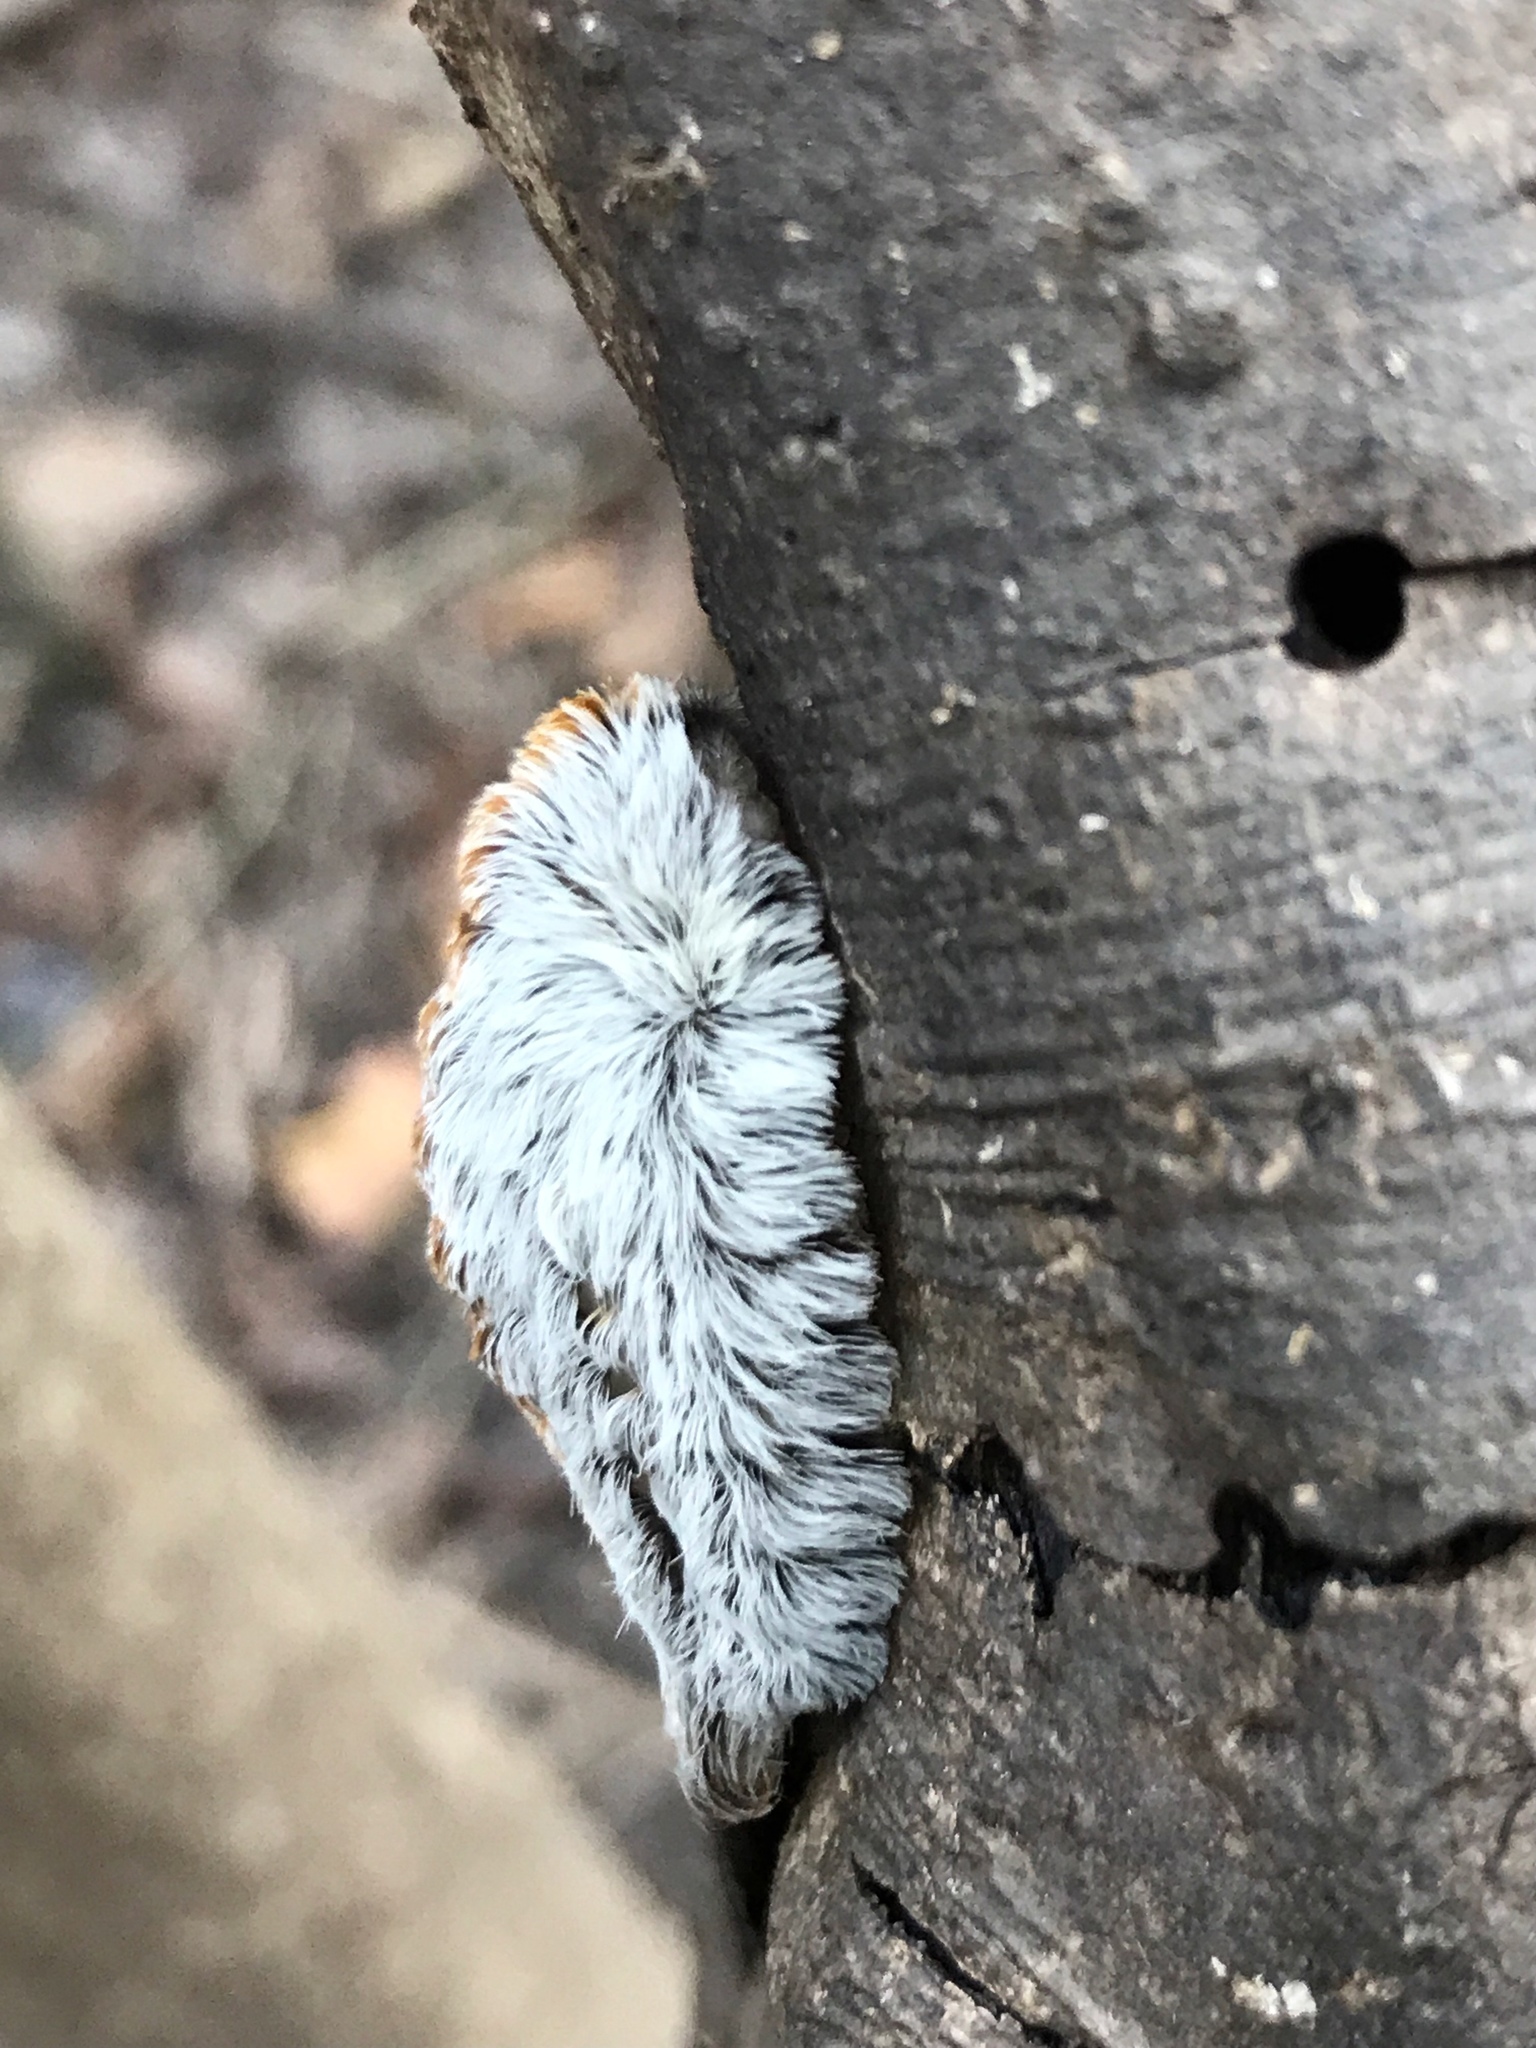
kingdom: Animalia
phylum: Arthropoda
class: Insecta
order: Lepidoptera
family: Megalopygidae
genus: Megalopyge
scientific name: Megalopyge opercularis
